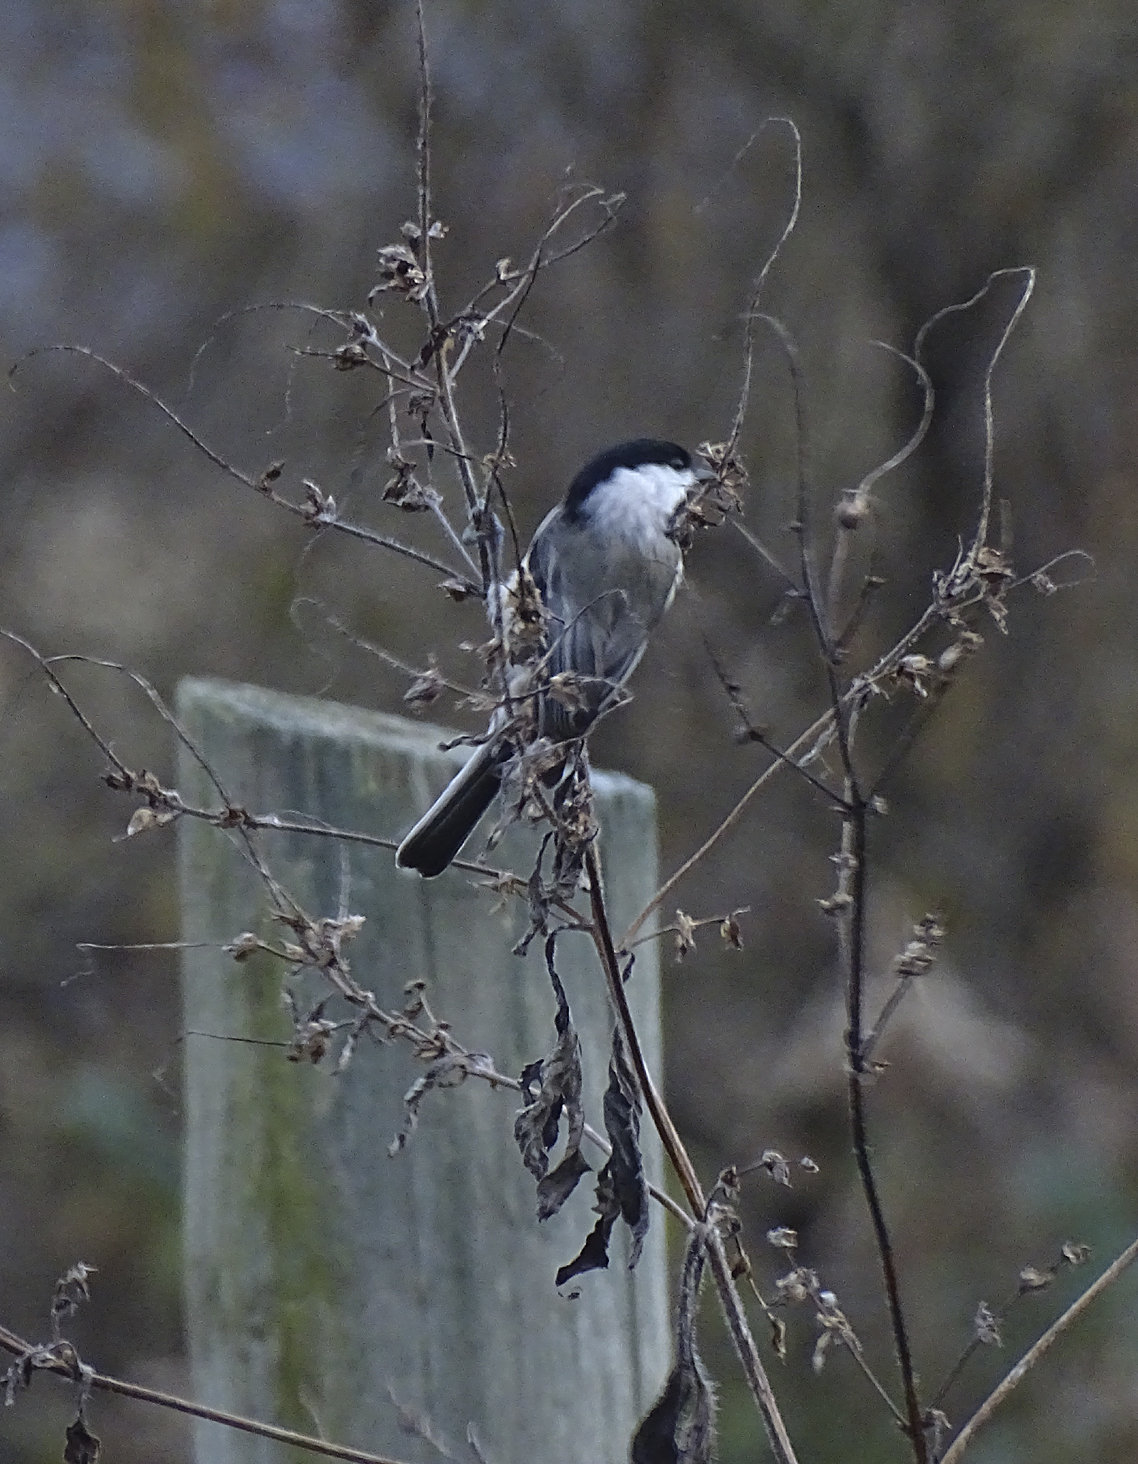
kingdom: Animalia
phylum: Chordata
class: Aves
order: Passeriformes
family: Paridae
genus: Poecile
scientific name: Poecile carolinensis
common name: Carolina chickadee
